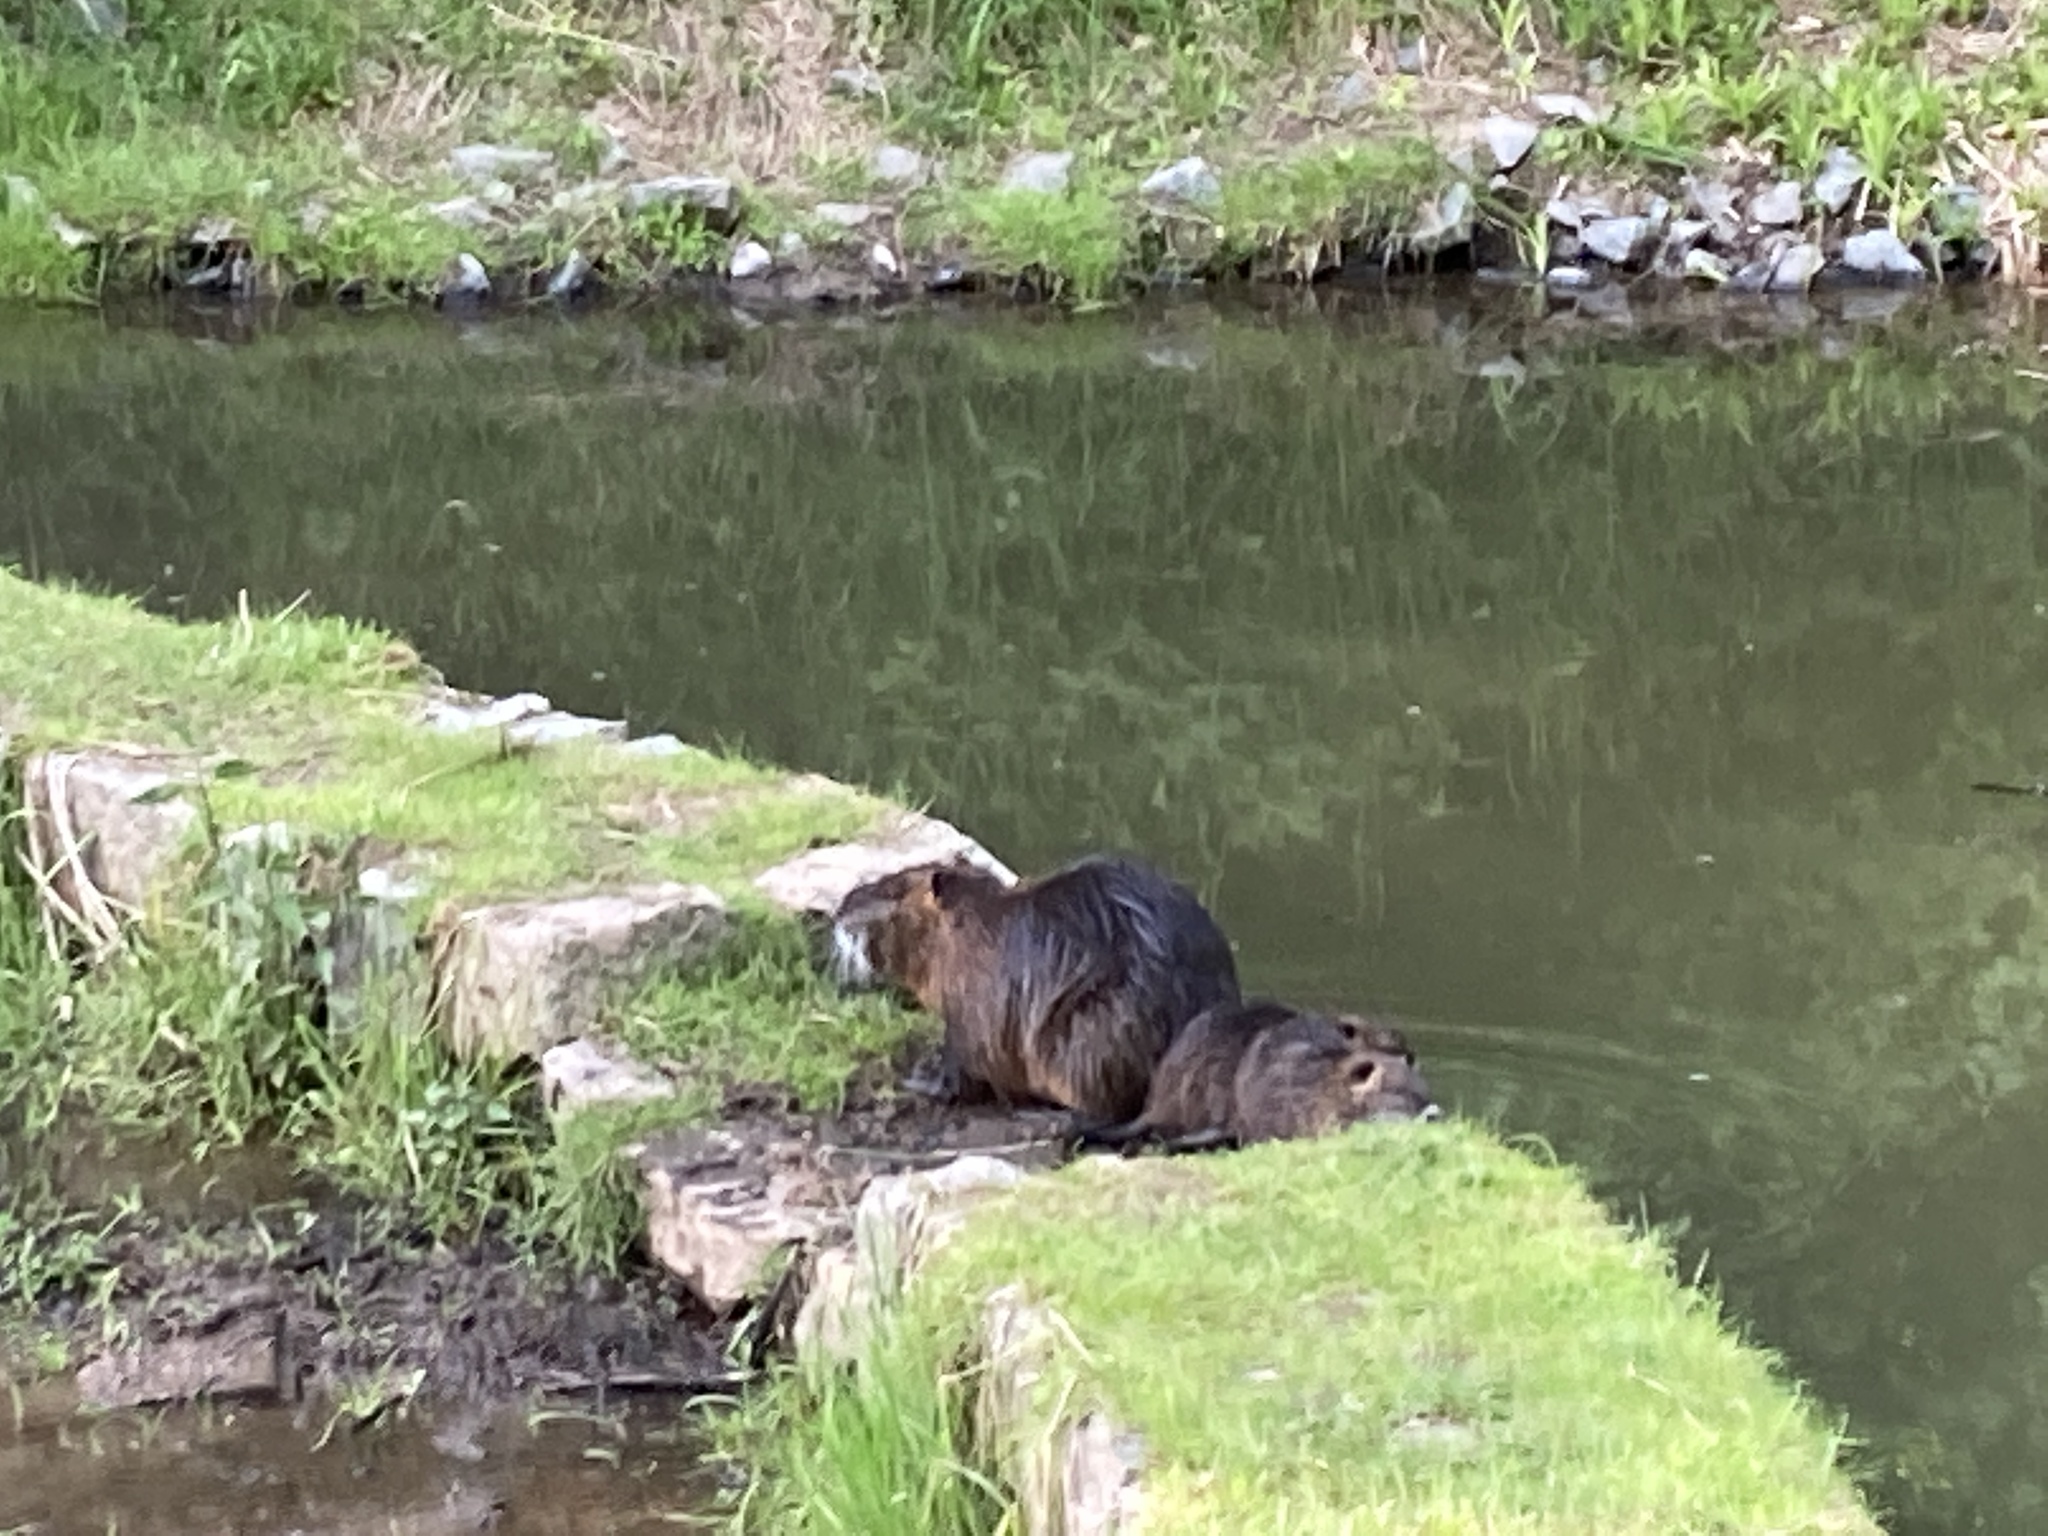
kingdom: Animalia
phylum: Chordata
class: Mammalia
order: Rodentia
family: Myocastoridae
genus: Myocastor
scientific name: Myocastor coypus
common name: Coypu
